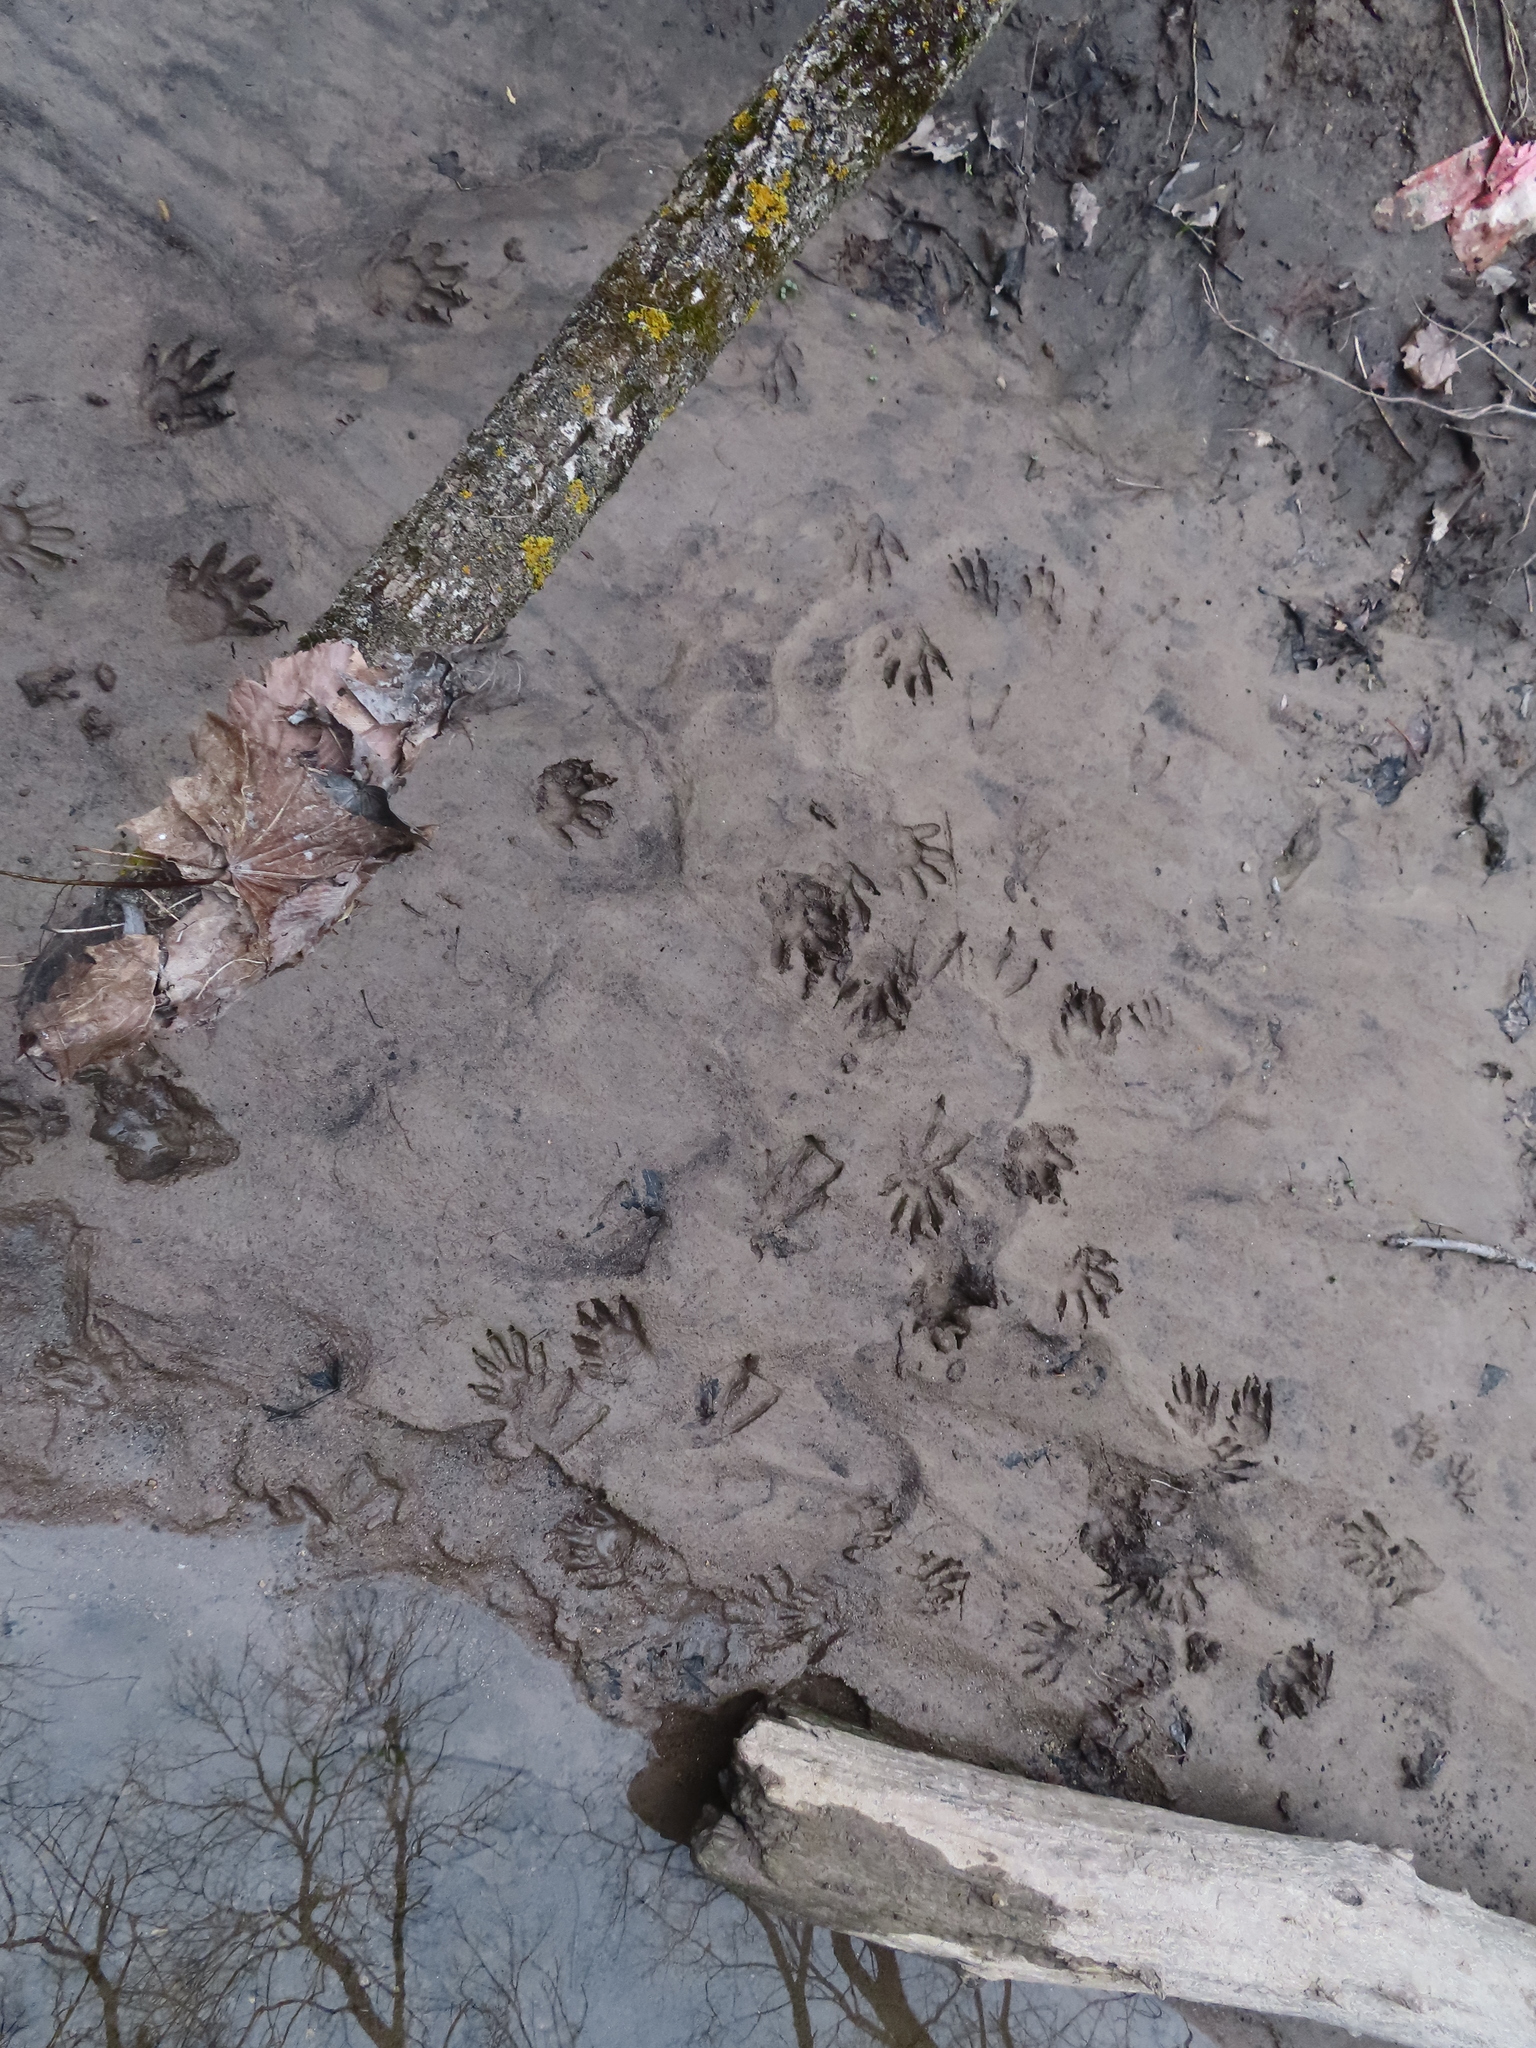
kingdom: Animalia
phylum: Chordata
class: Mammalia
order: Carnivora
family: Procyonidae
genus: Procyon
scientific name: Procyon lotor
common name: Raccoon
